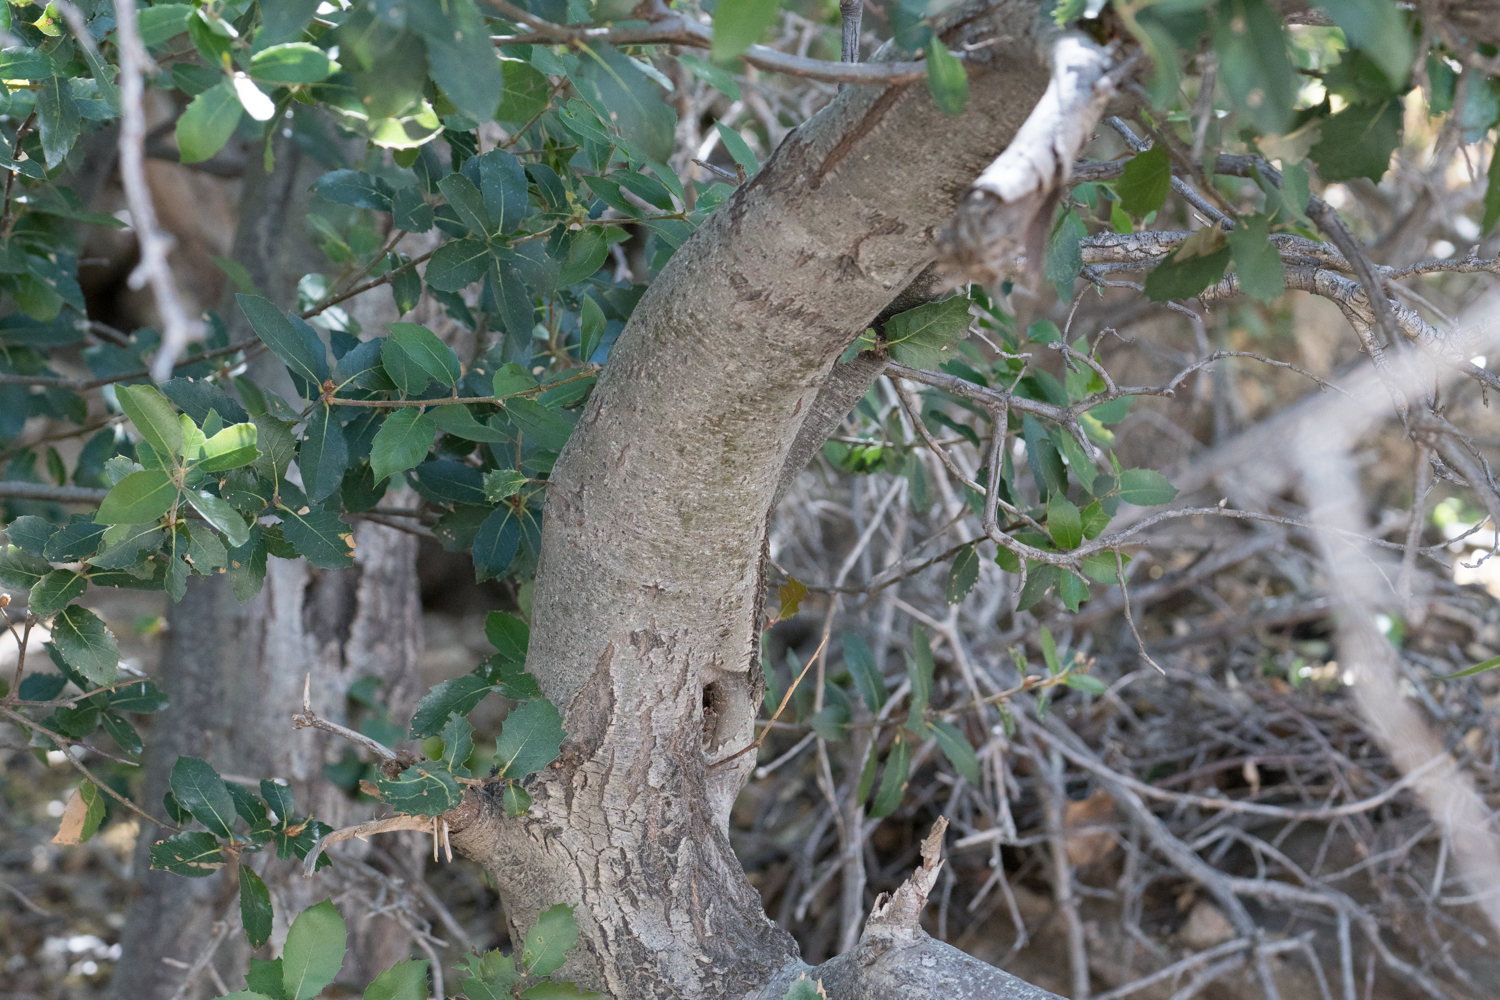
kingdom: Plantae
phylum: Tracheophyta
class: Magnoliopsida
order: Fagales
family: Fagaceae
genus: Quercus
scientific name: Quercus wislizeni
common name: Interior live oak
